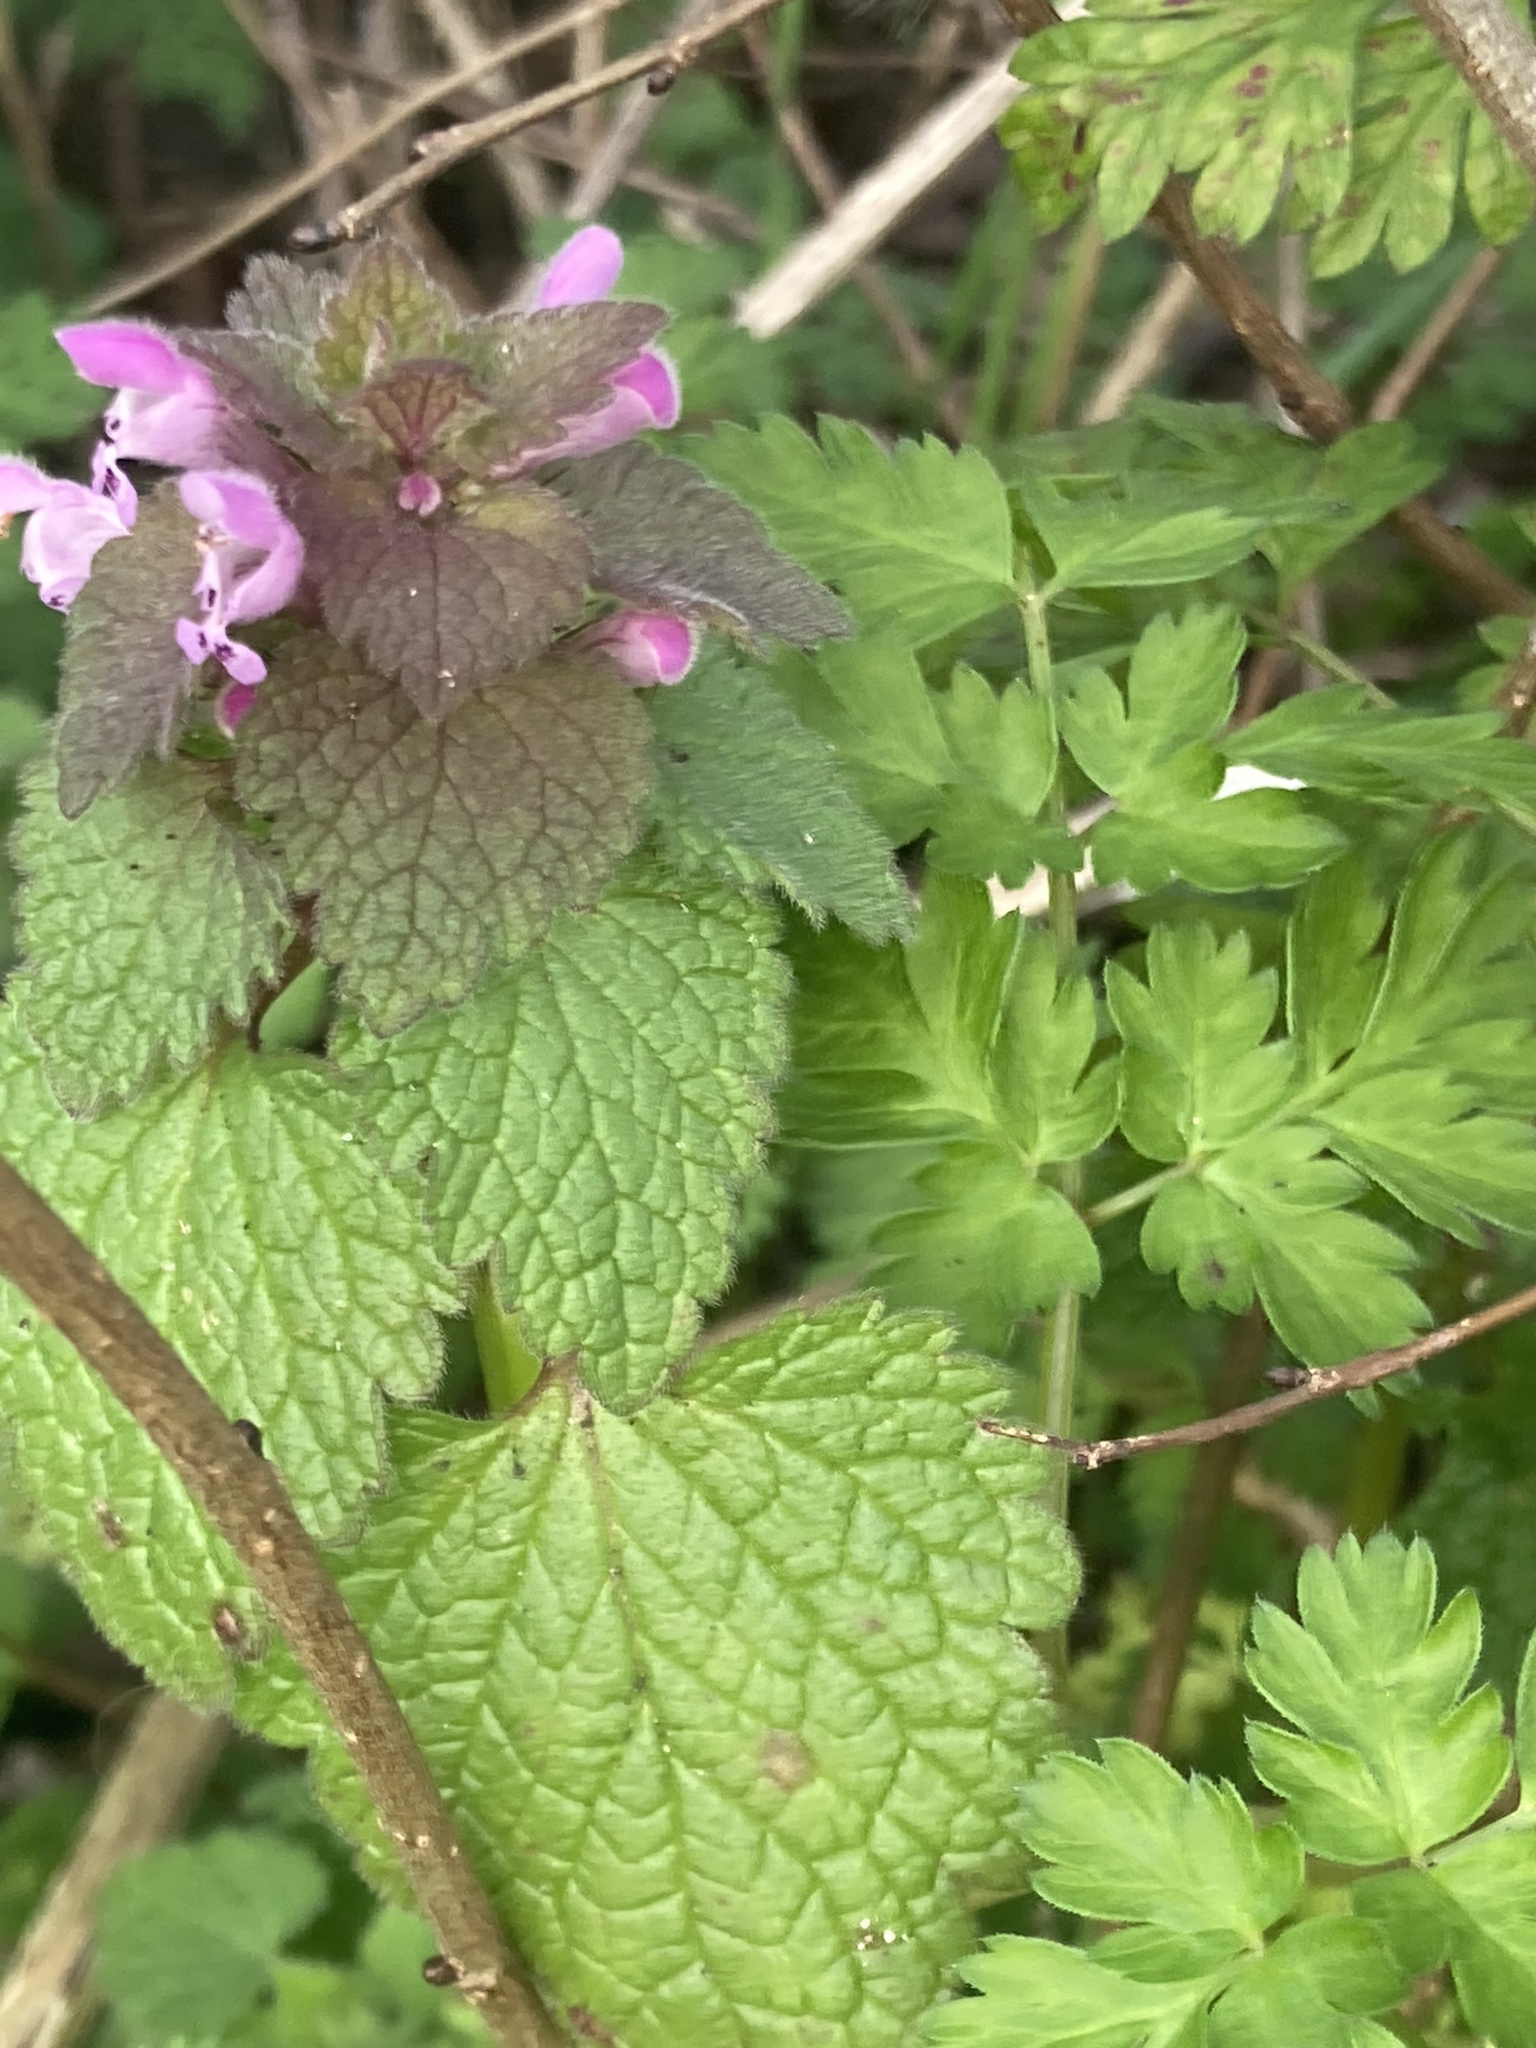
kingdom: Plantae
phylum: Tracheophyta
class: Magnoliopsida
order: Lamiales
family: Lamiaceae
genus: Lamium
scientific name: Lamium purpureum
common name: Red dead-nettle
